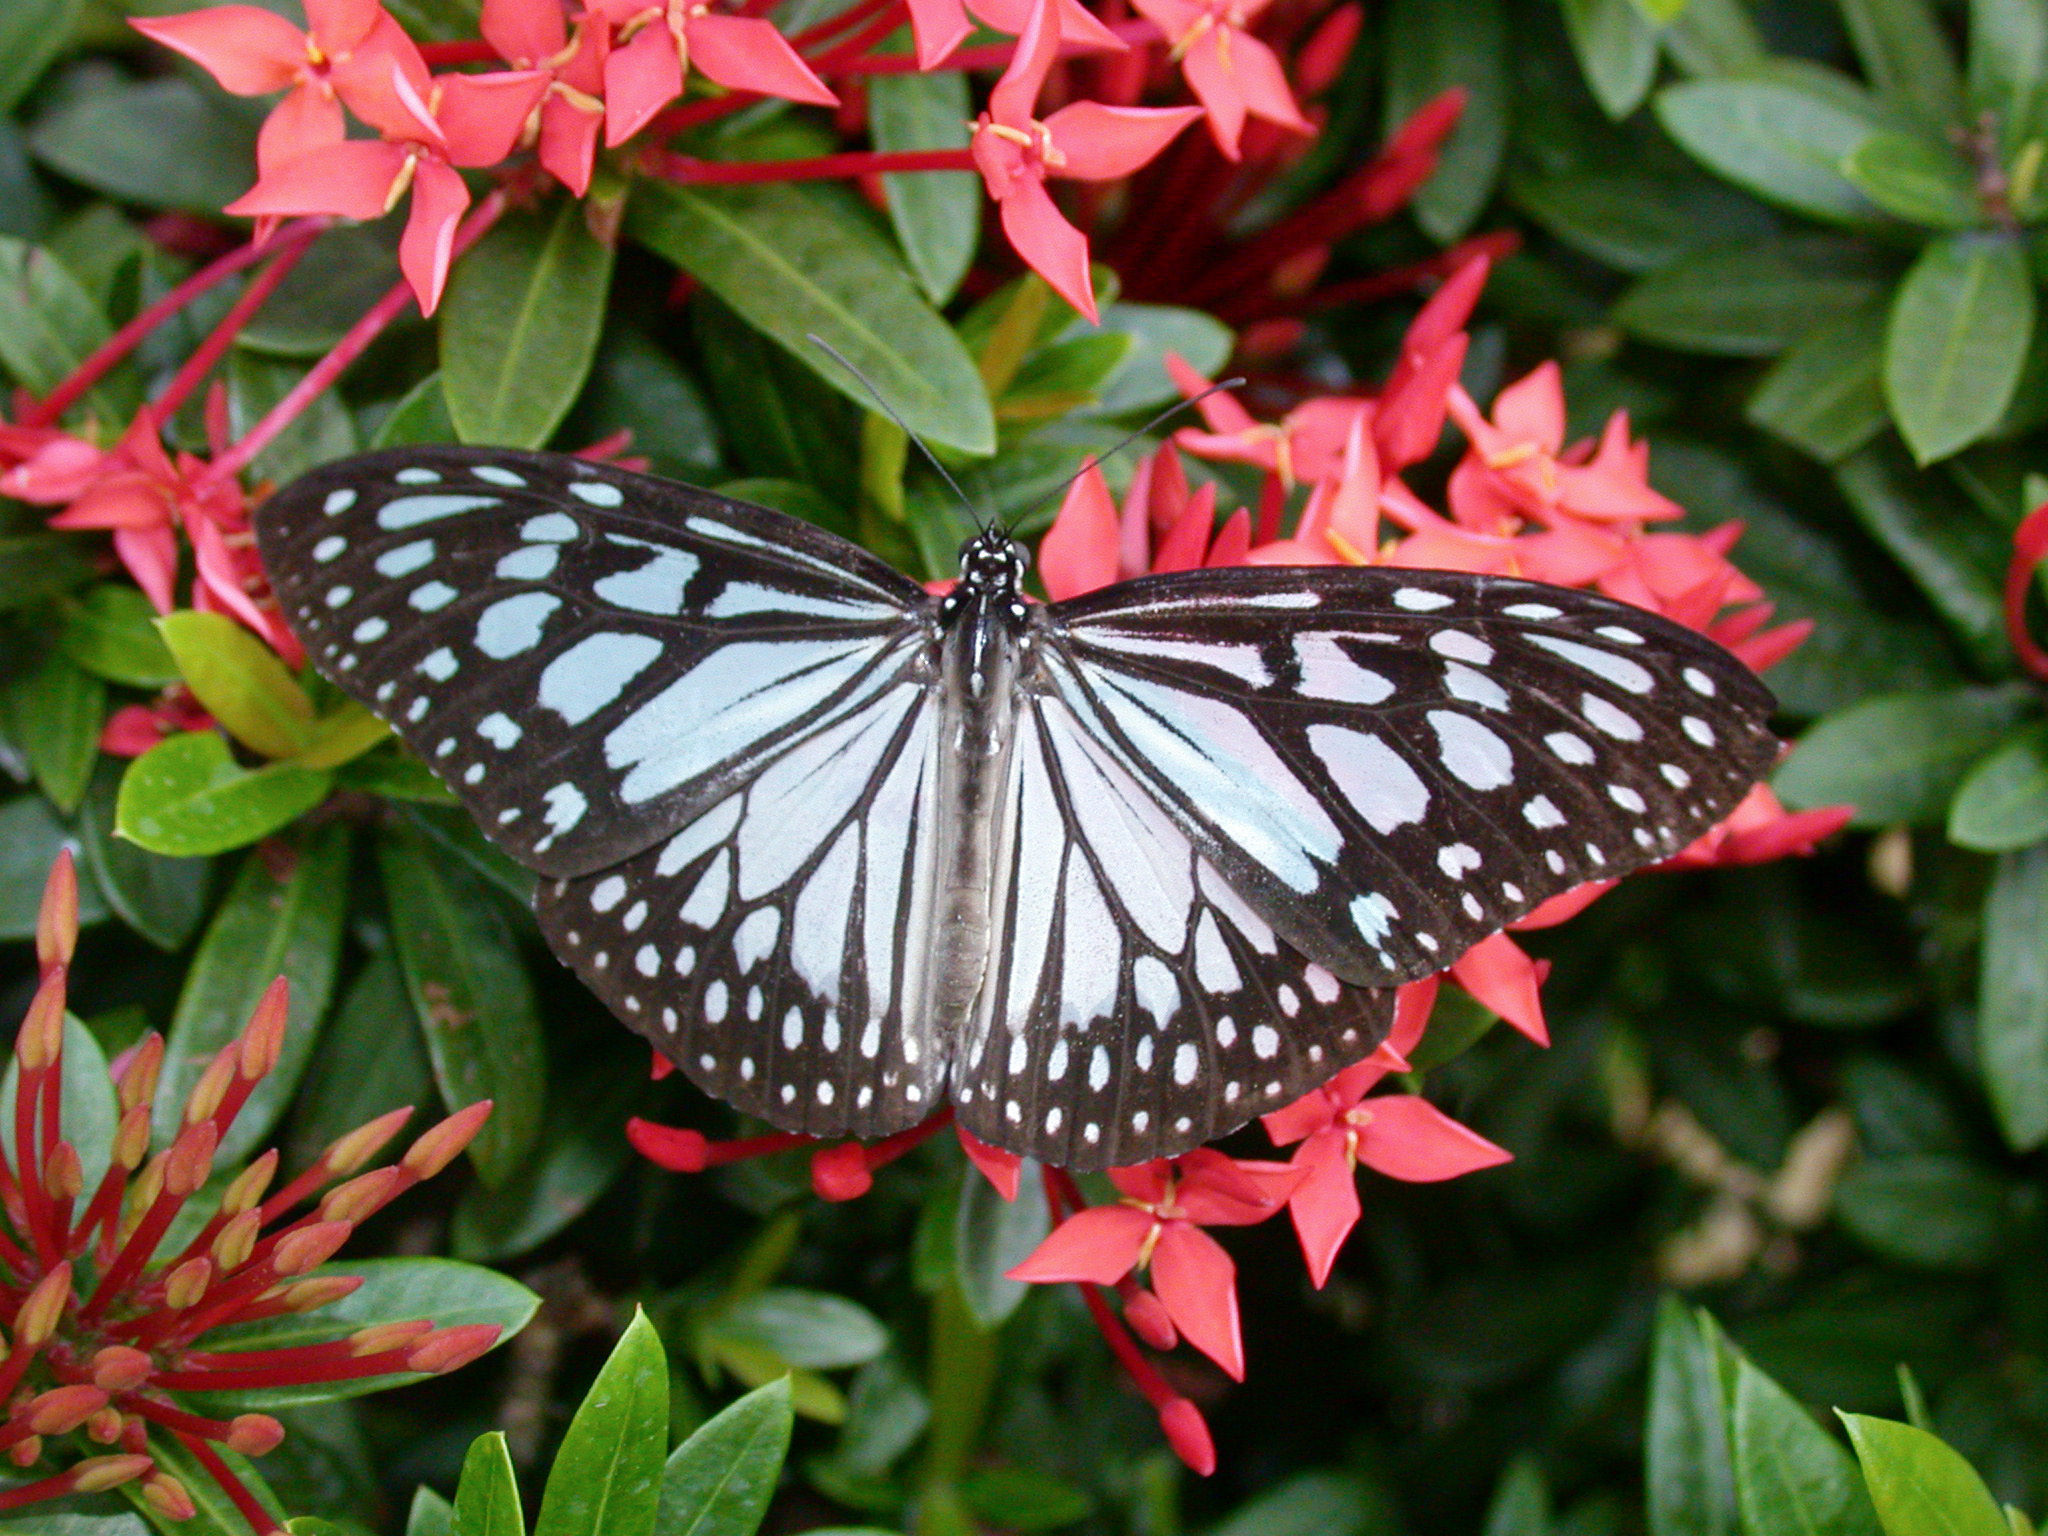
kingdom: Animalia
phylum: Arthropoda
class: Insecta
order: Lepidoptera
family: Nymphalidae
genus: Ideopsis
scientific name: Ideopsis juventa
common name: Grey glassy tiger
